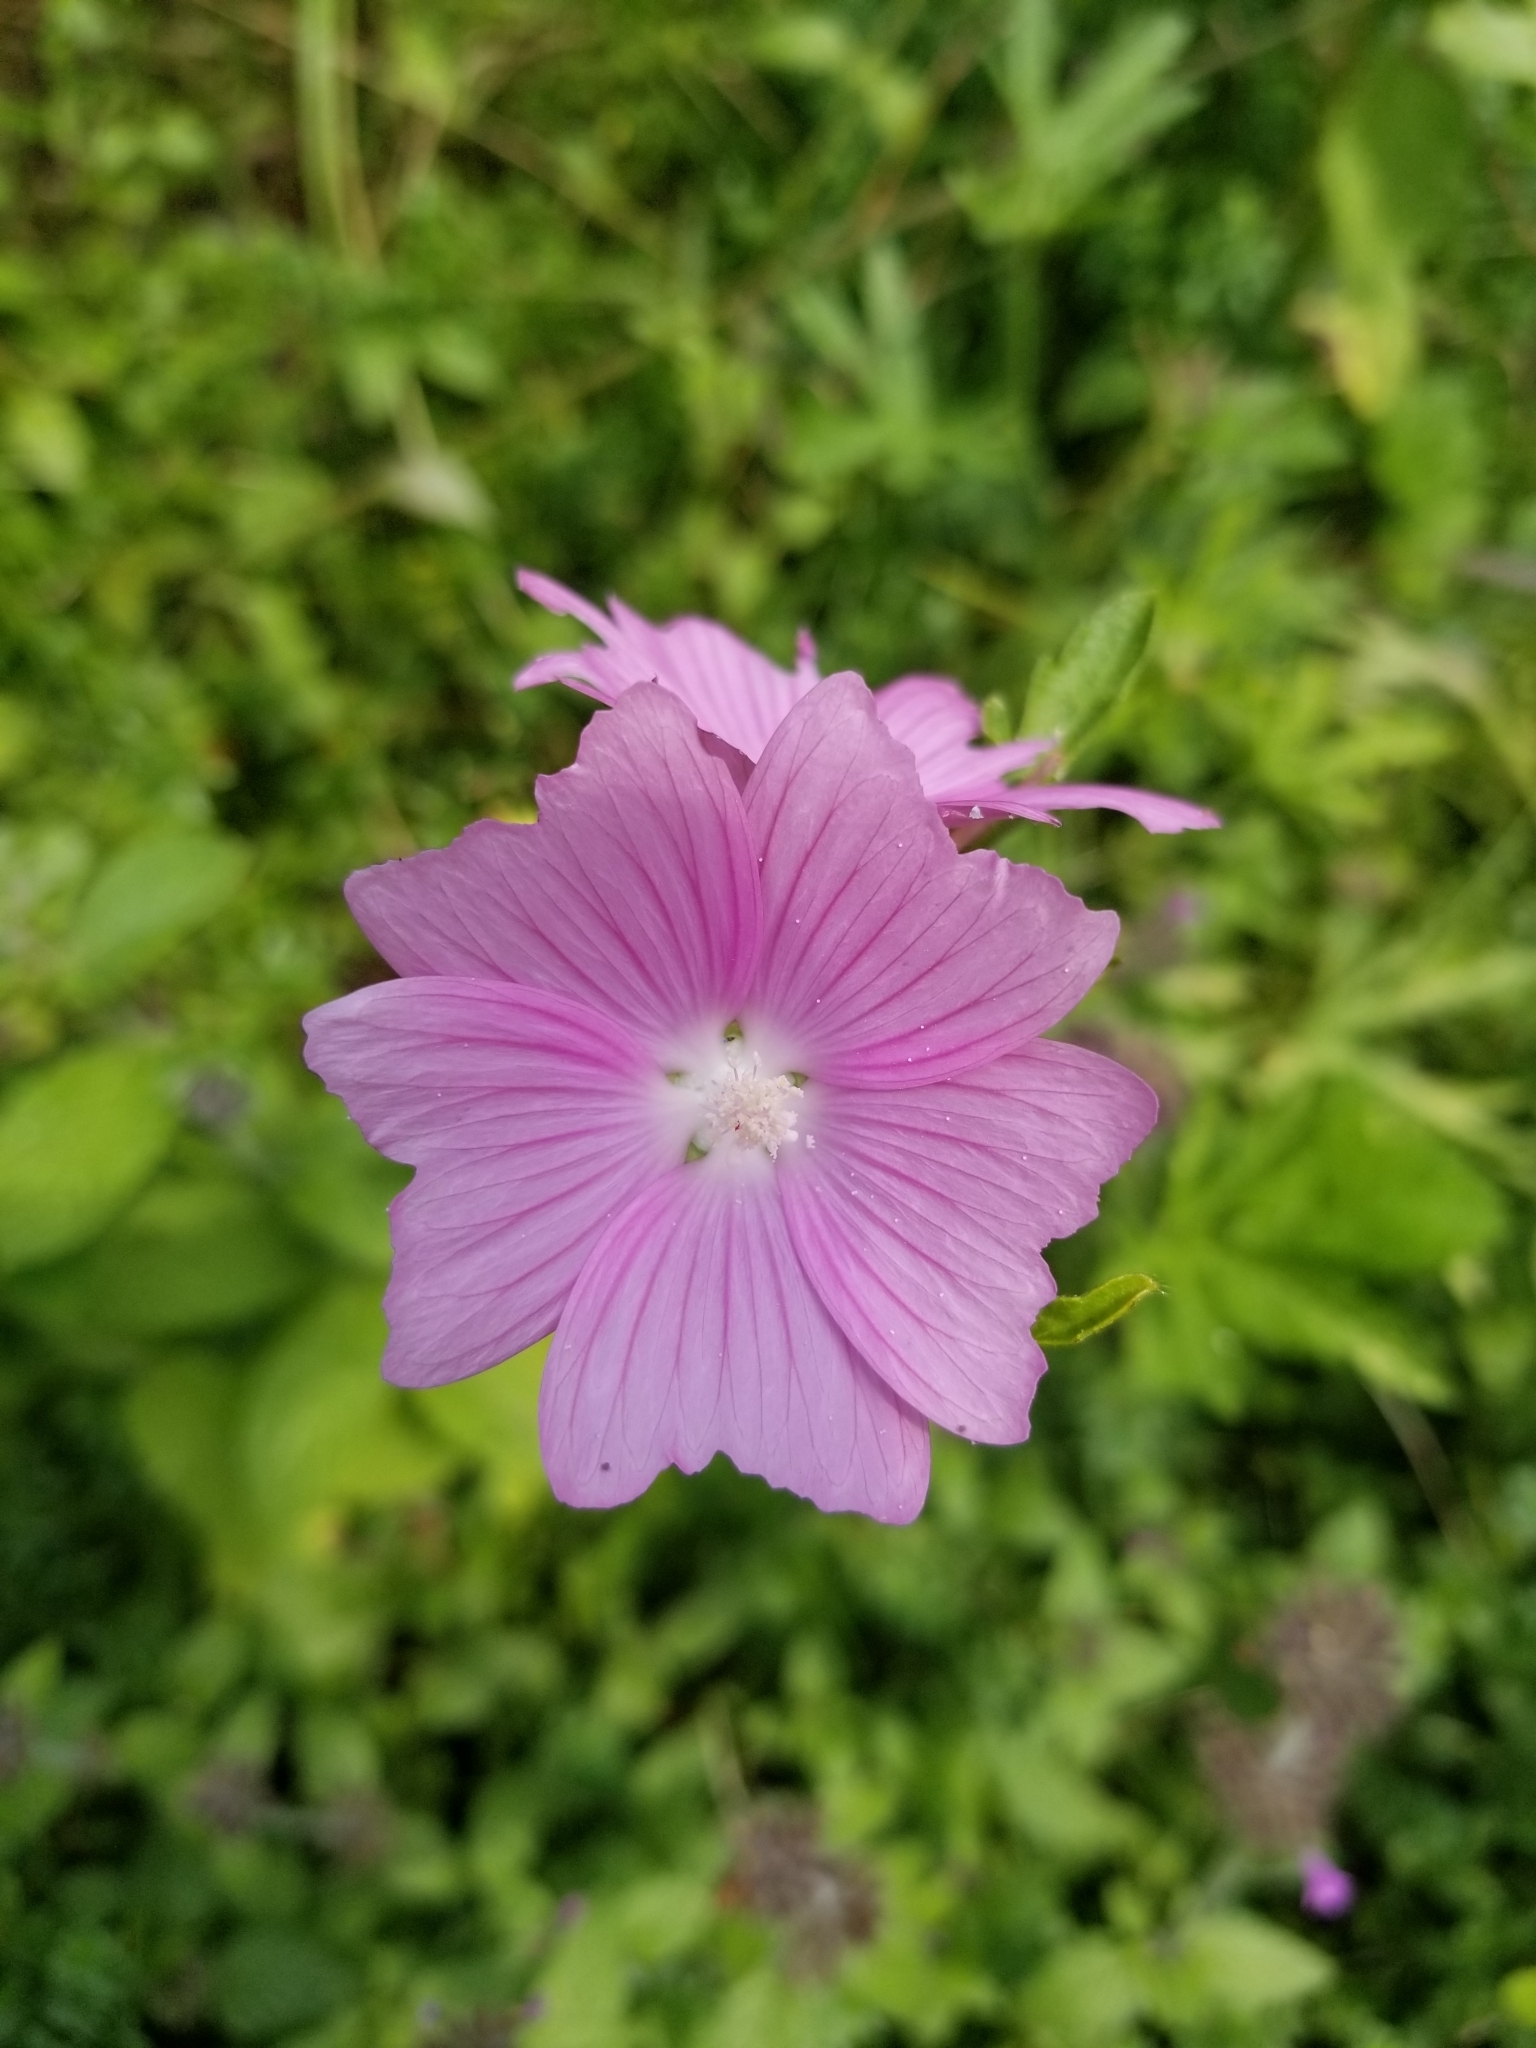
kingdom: Plantae
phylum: Tracheophyta
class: Magnoliopsida
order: Malvales
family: Malvaceae
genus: Malva
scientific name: Malva moschata
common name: Musk mallow
